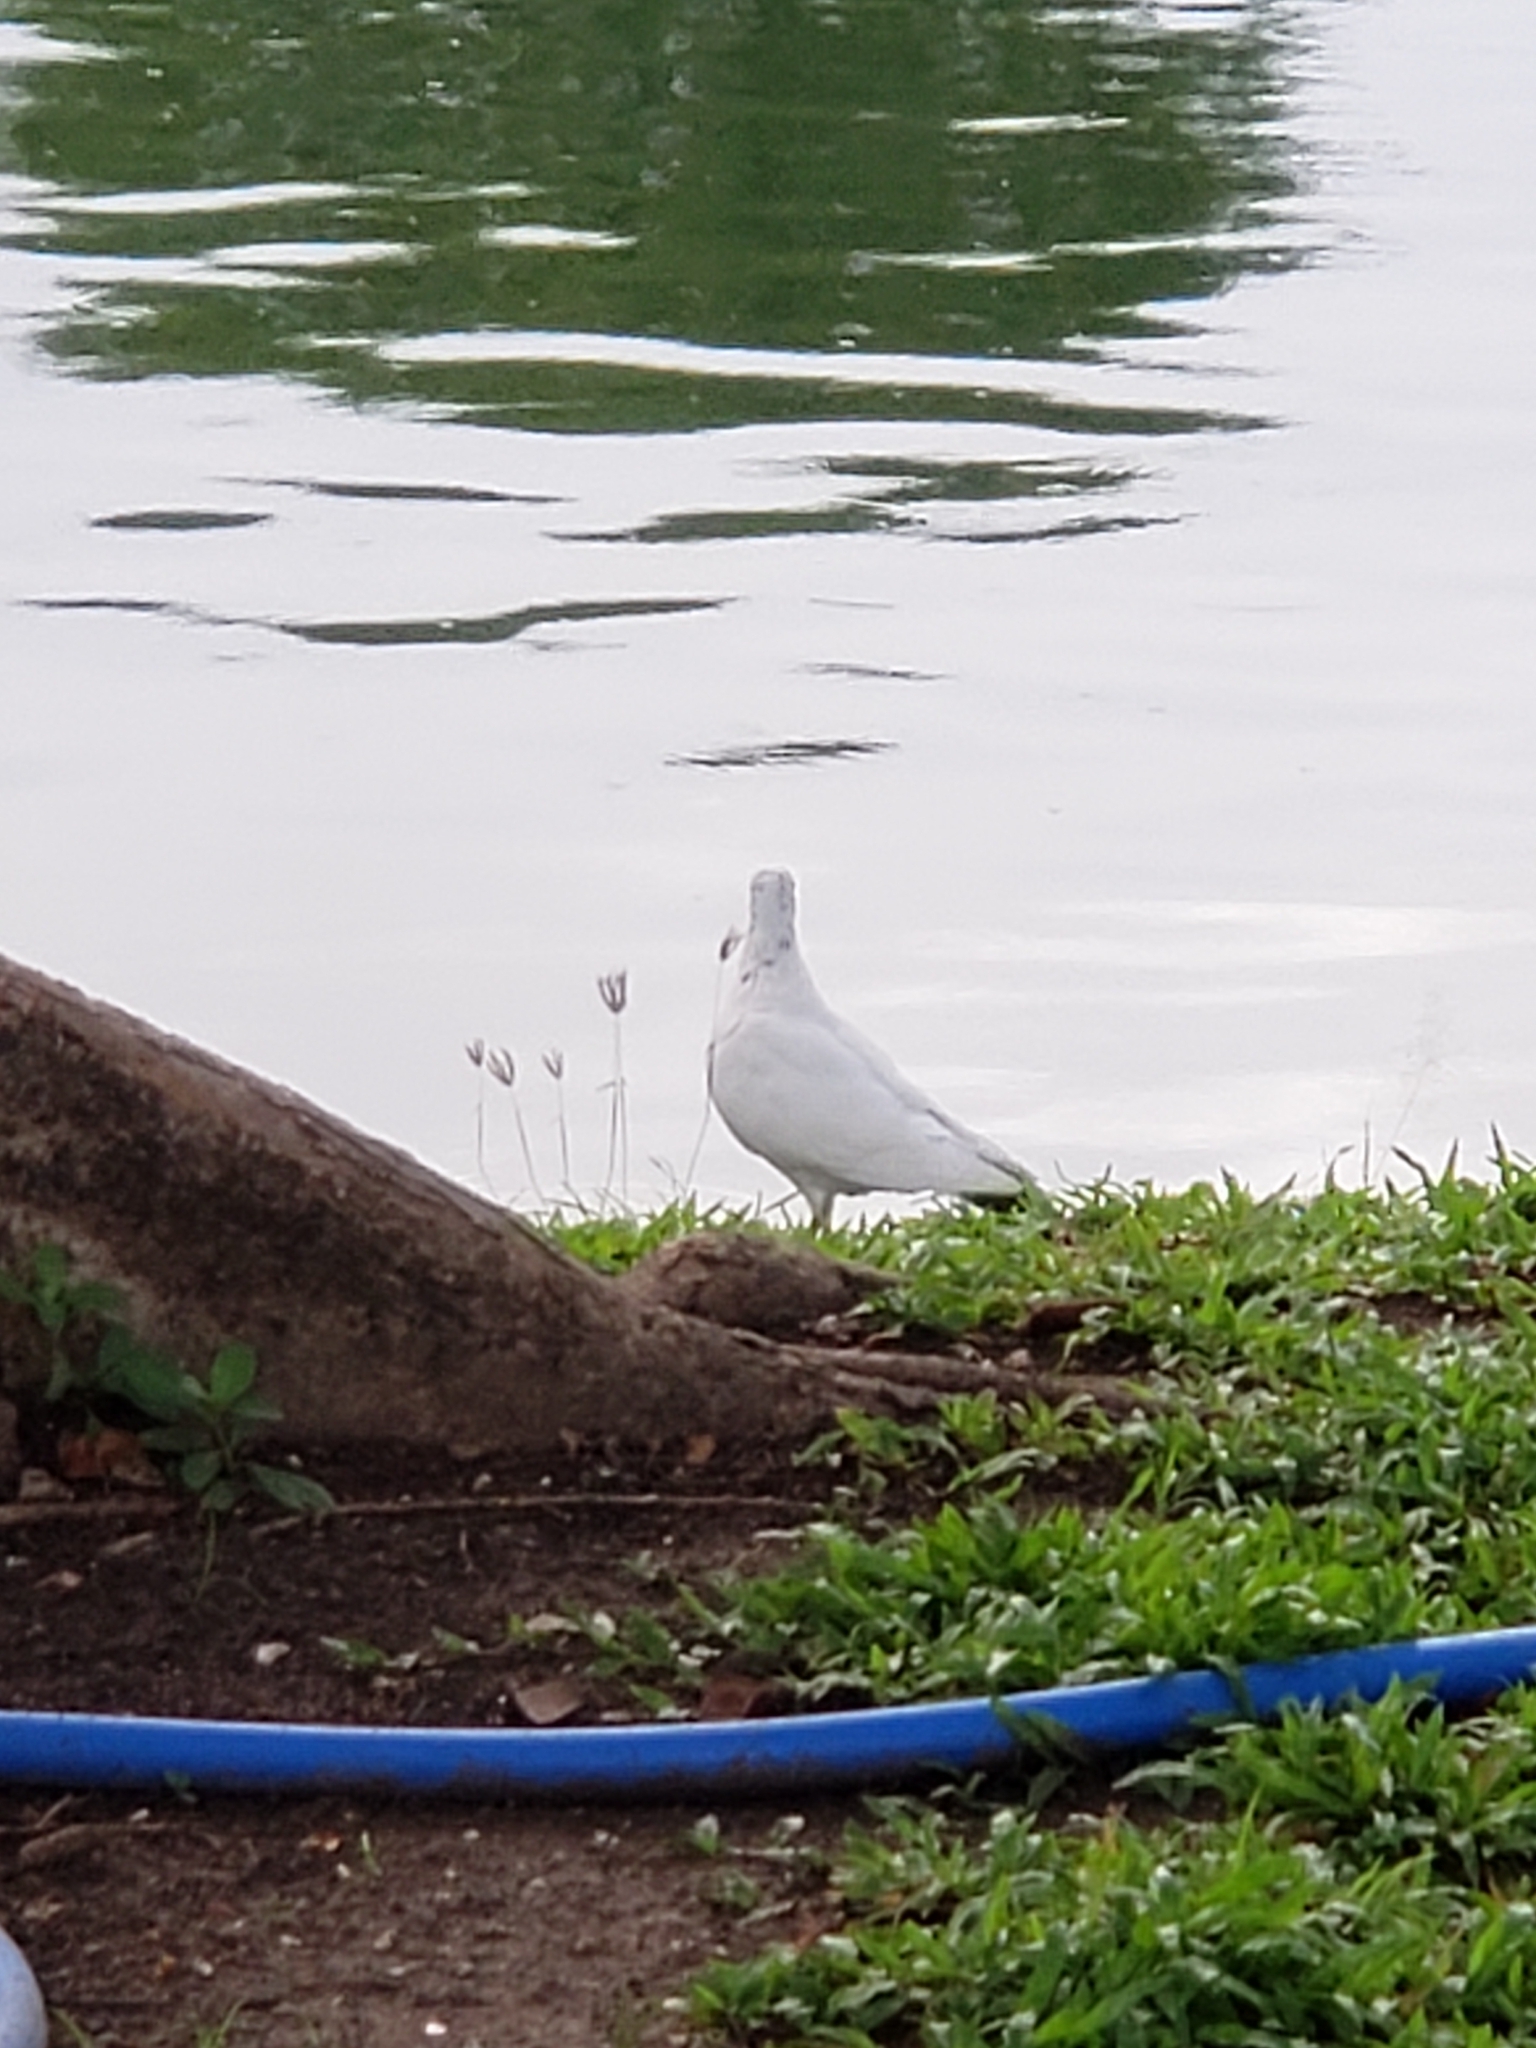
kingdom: Animalia
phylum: Chordata
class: Aves
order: Columbiformes
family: Columbidae
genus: Columba
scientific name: Columba livia
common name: Rock pigeon
